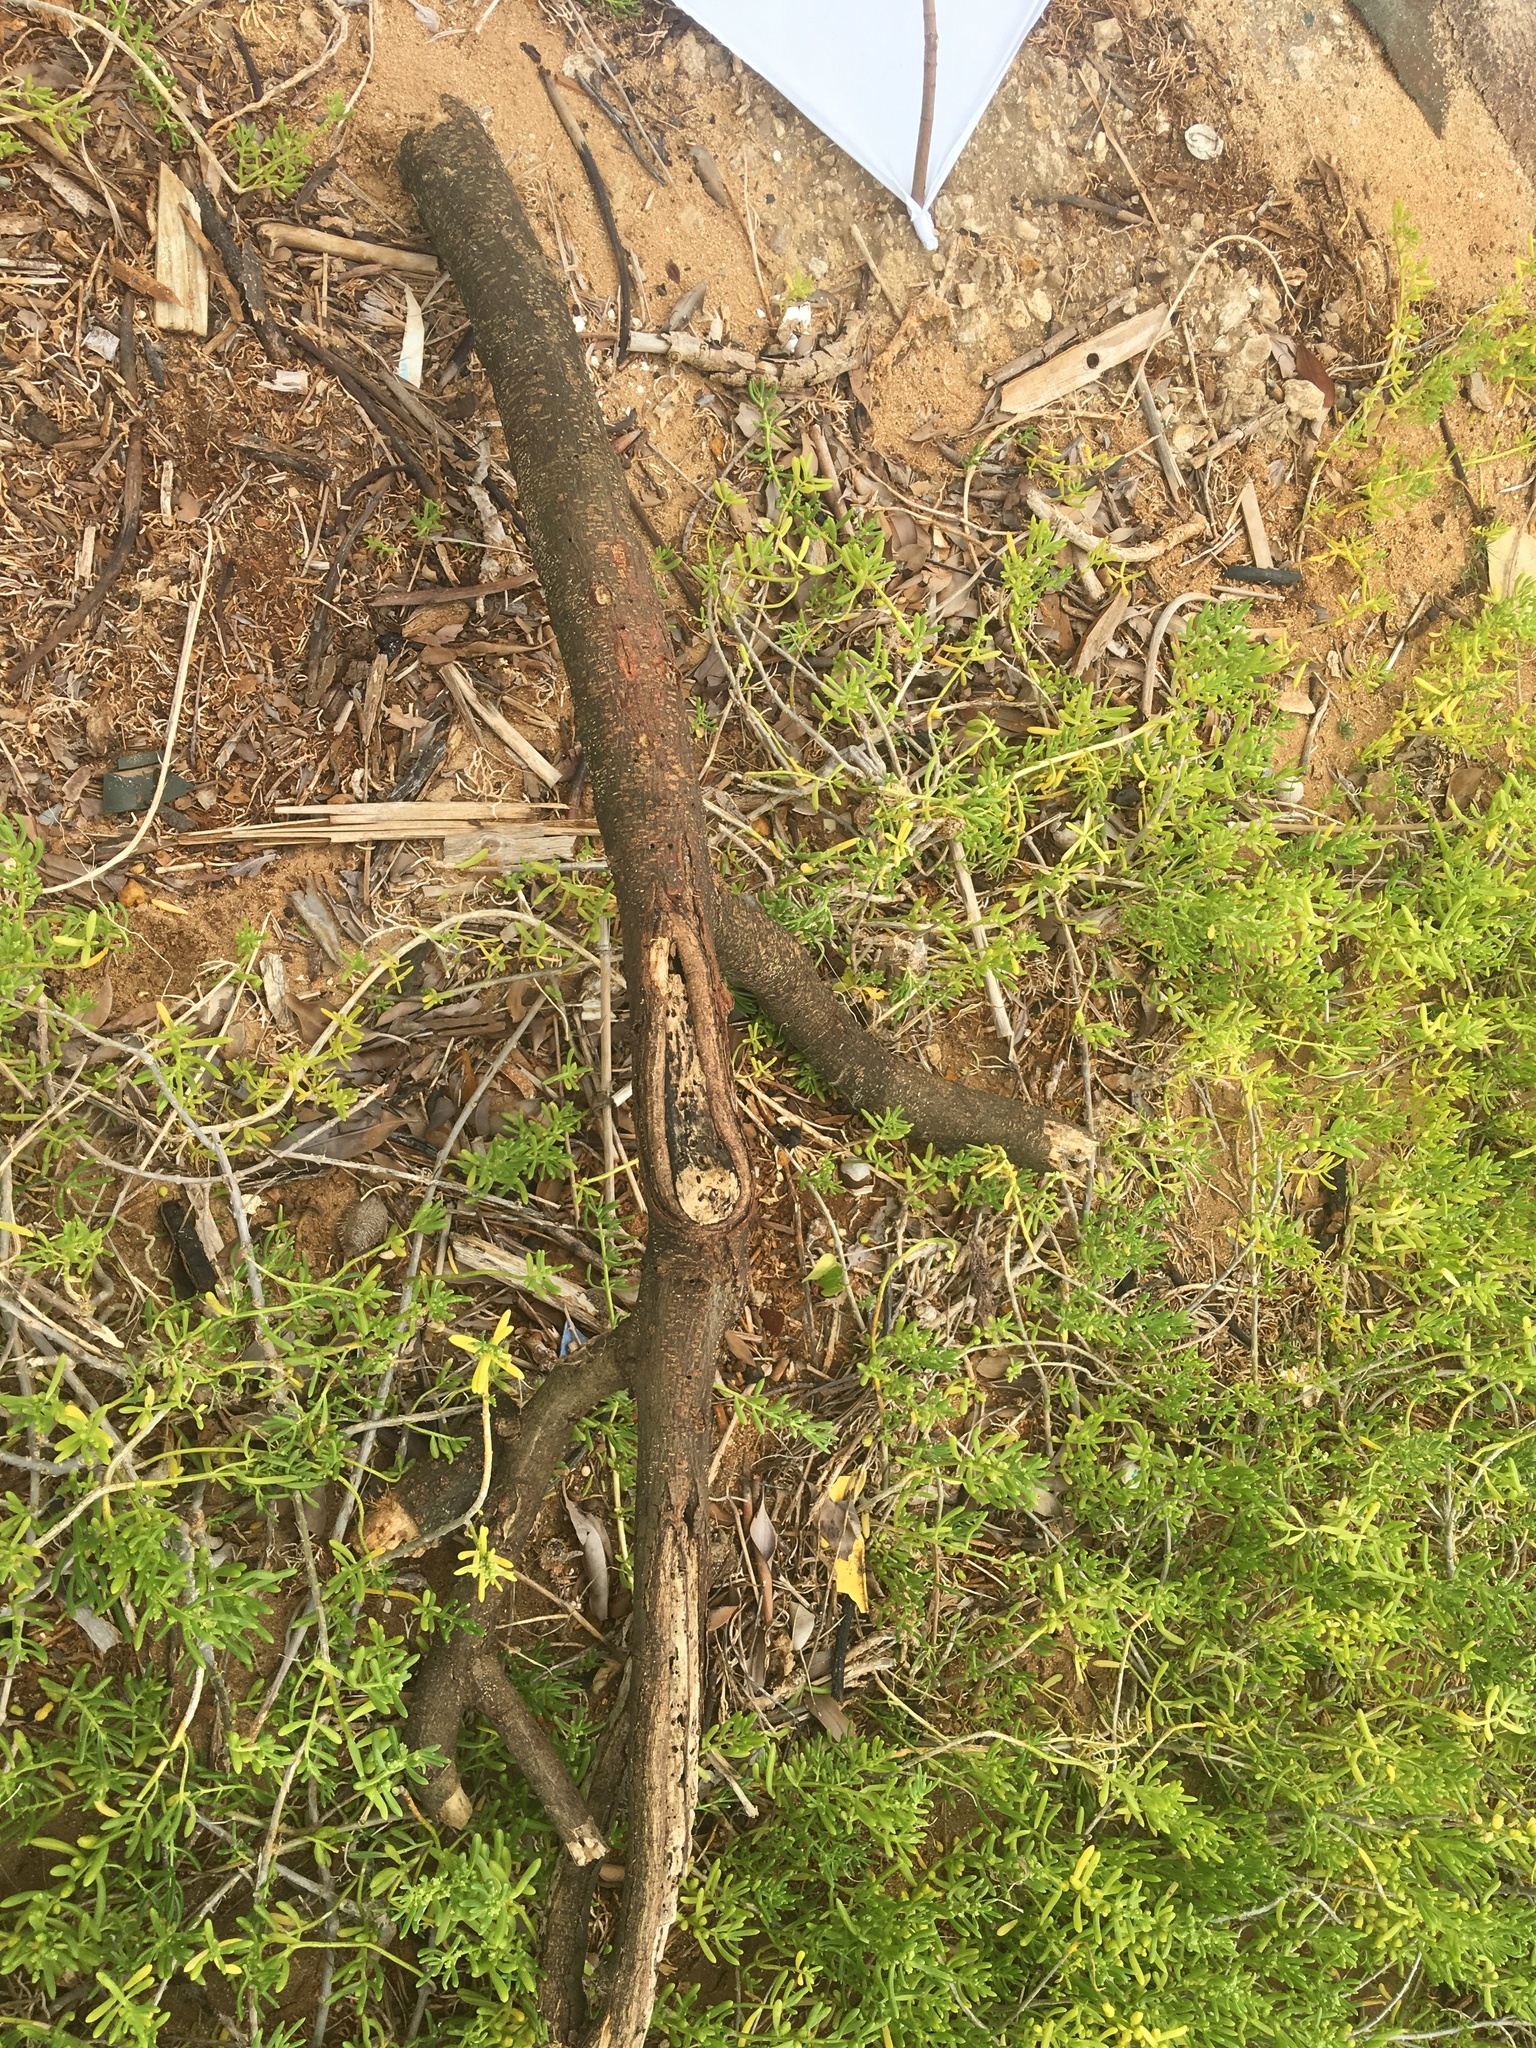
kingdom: Plantae
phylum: Tracheophyta
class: Magnoliopsida
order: Brassicales
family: Bataceae
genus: Batis
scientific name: Batis maritima
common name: Turtleweed
